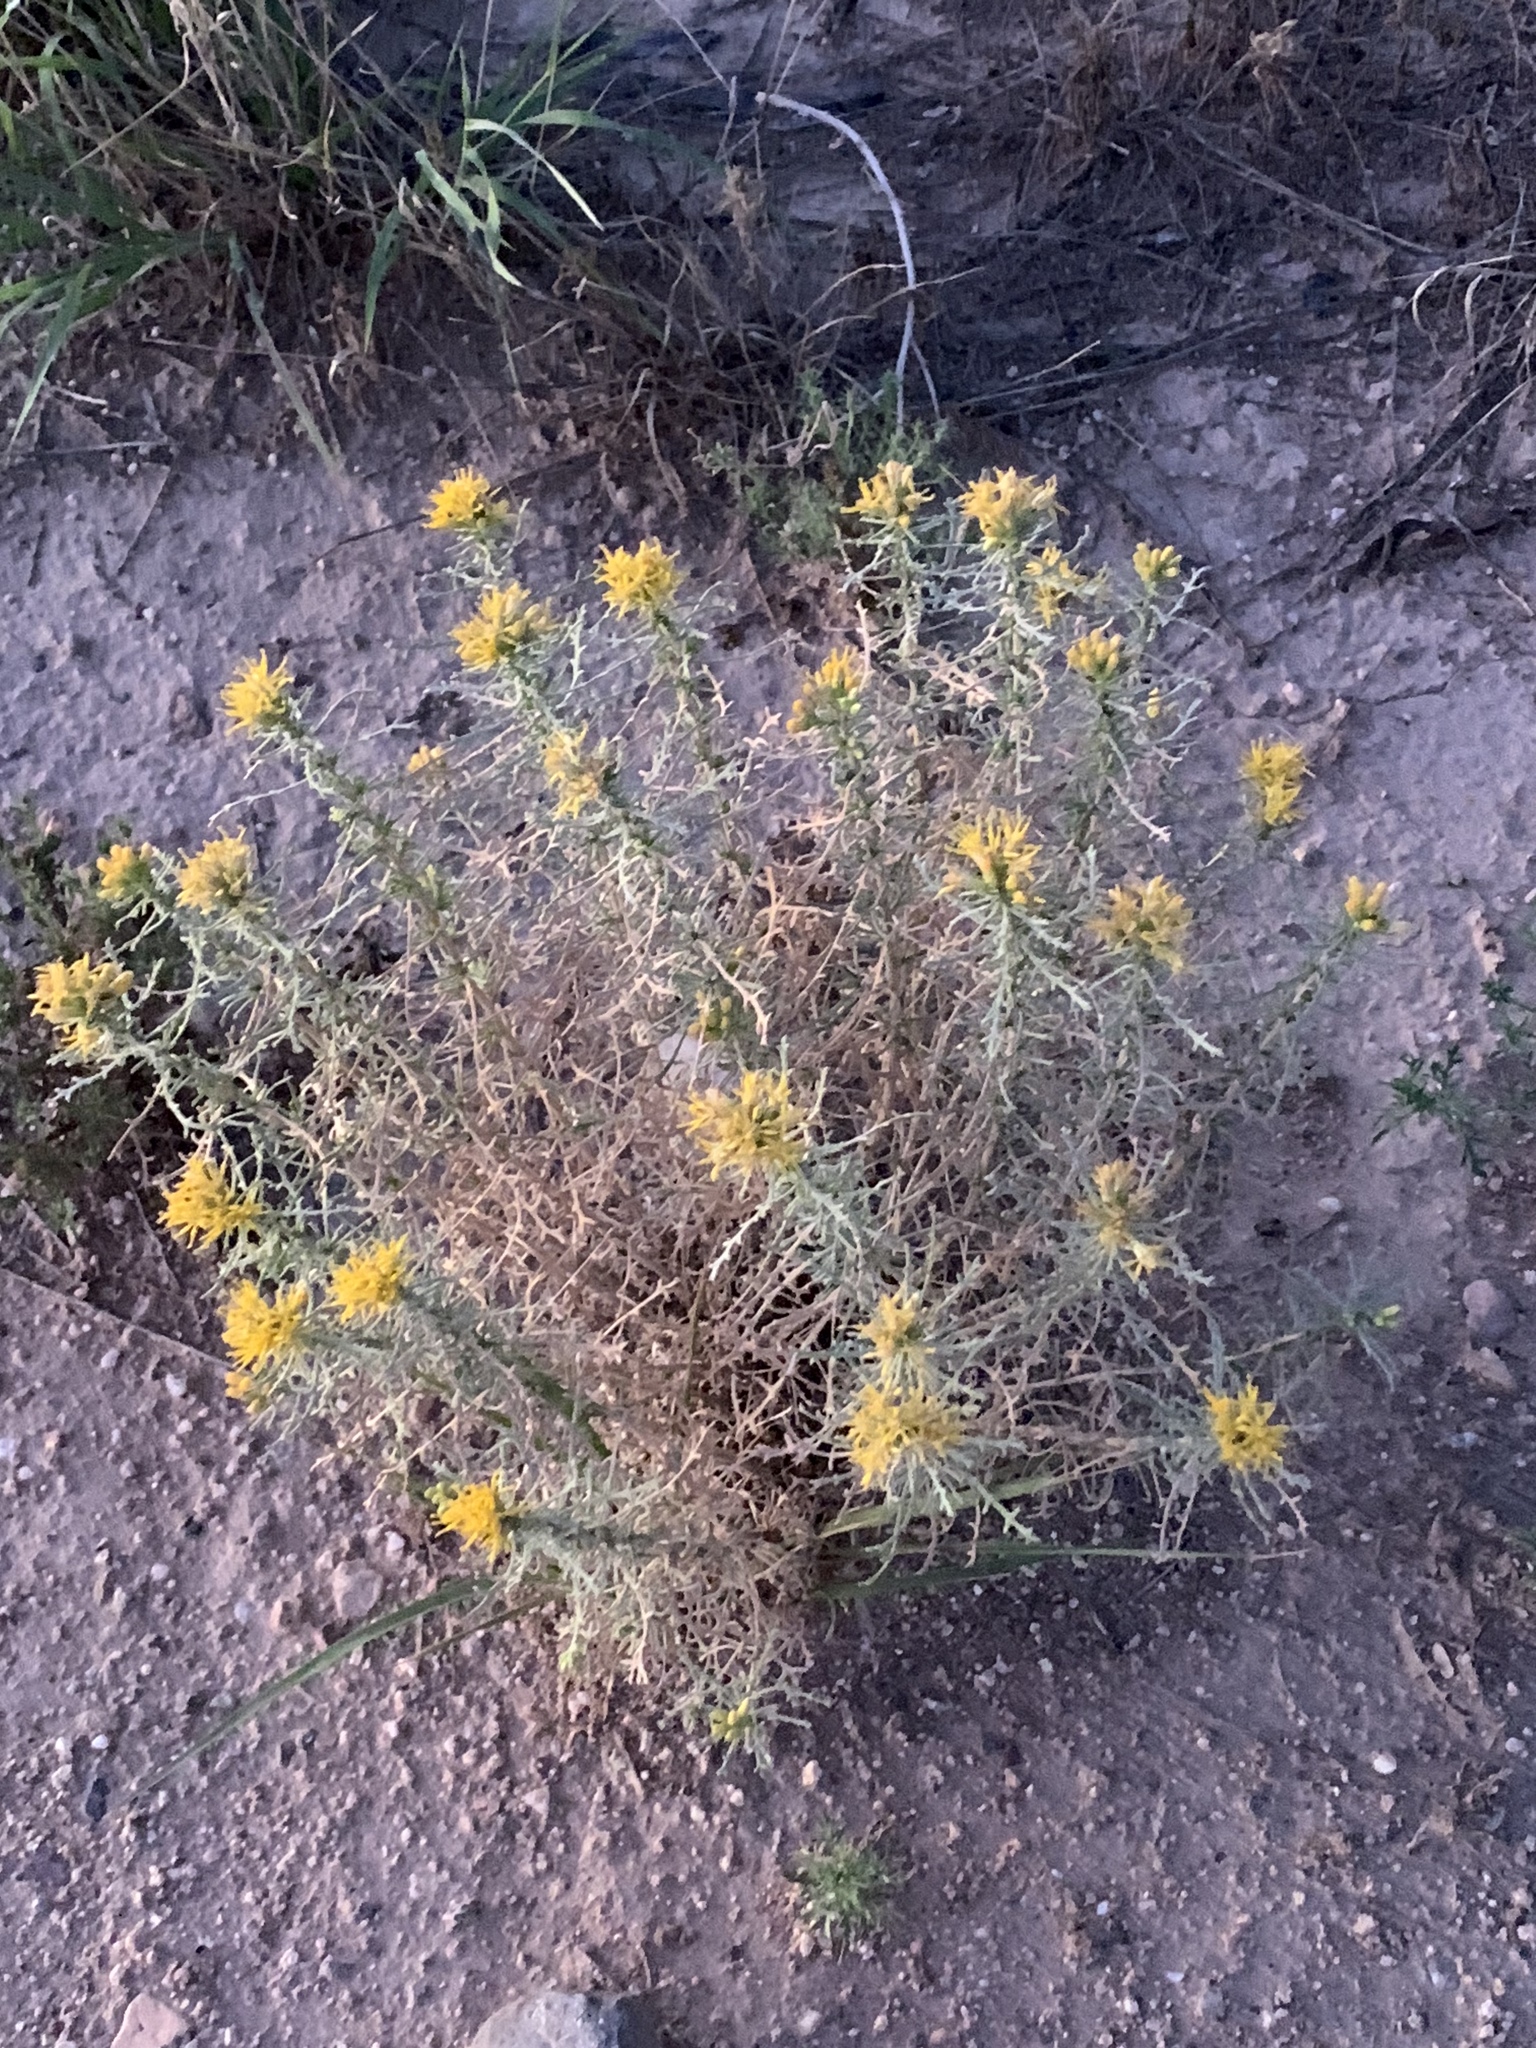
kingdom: Plantae
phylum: Tracheophyta
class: Magnoliopsida
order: Asterales
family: Asteraceae
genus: Isocoma
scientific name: Isocoma tenuisecta
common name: Burroweed
